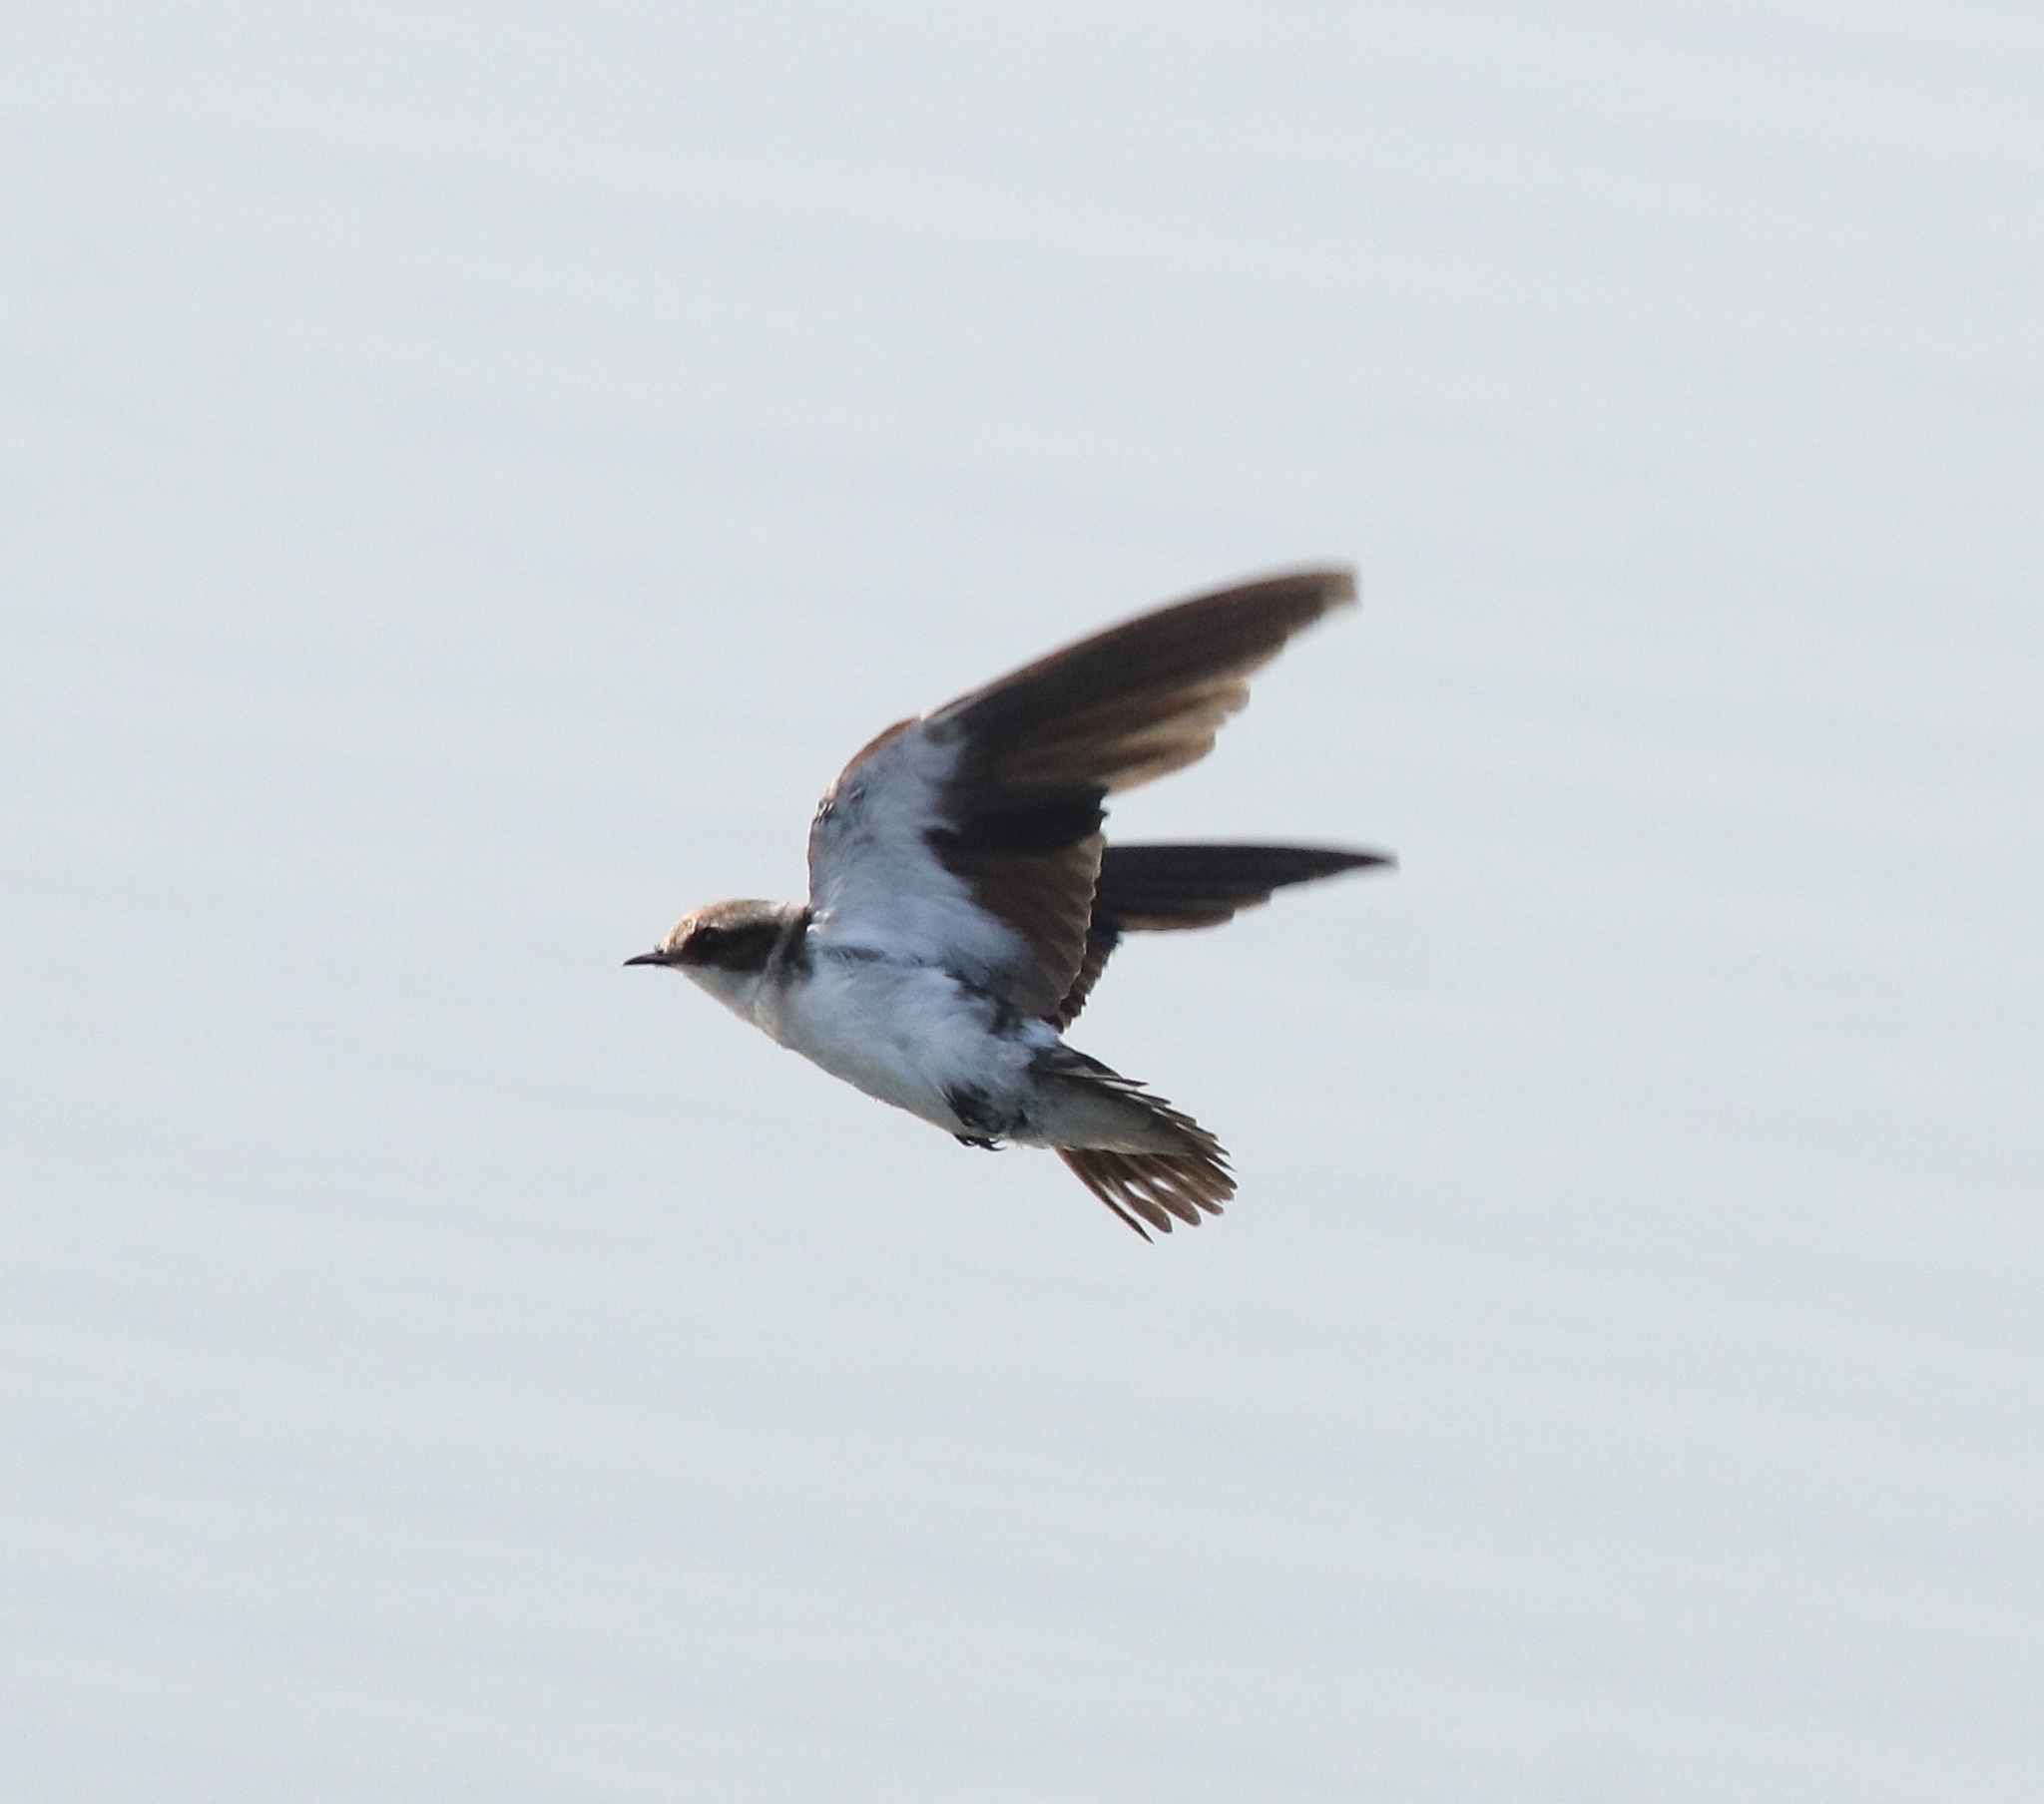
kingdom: Animalia
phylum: Chordata
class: Aves
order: Passeriformes
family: Hirundinidae
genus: Hirundo
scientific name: Hirundo smithii
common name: Wire-tailed swallow
